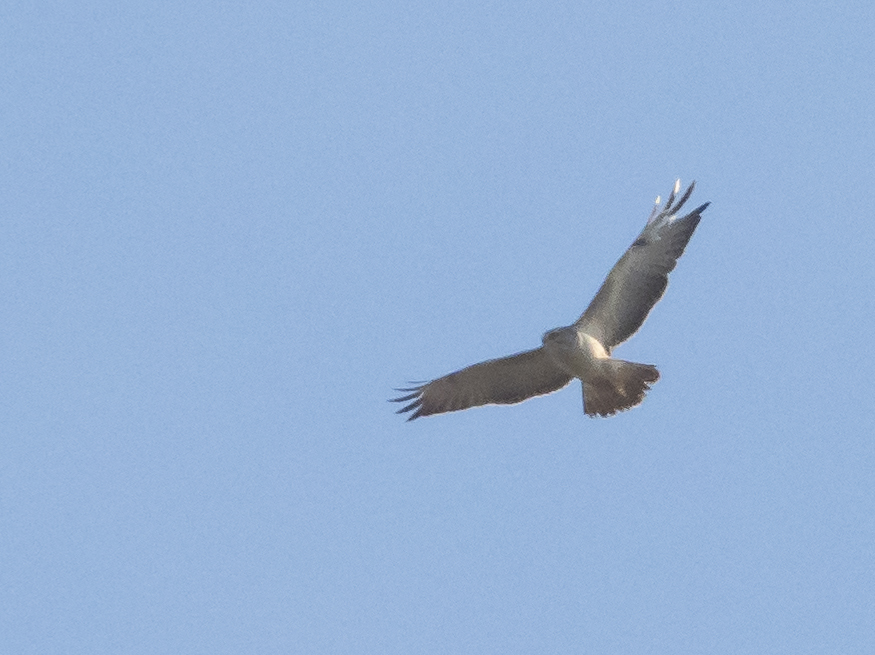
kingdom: Animalia
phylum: Chordata
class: Aves
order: Accipitriformes
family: Accipitridae
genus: Buteo
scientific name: Buteo buteo
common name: Common buzzard
